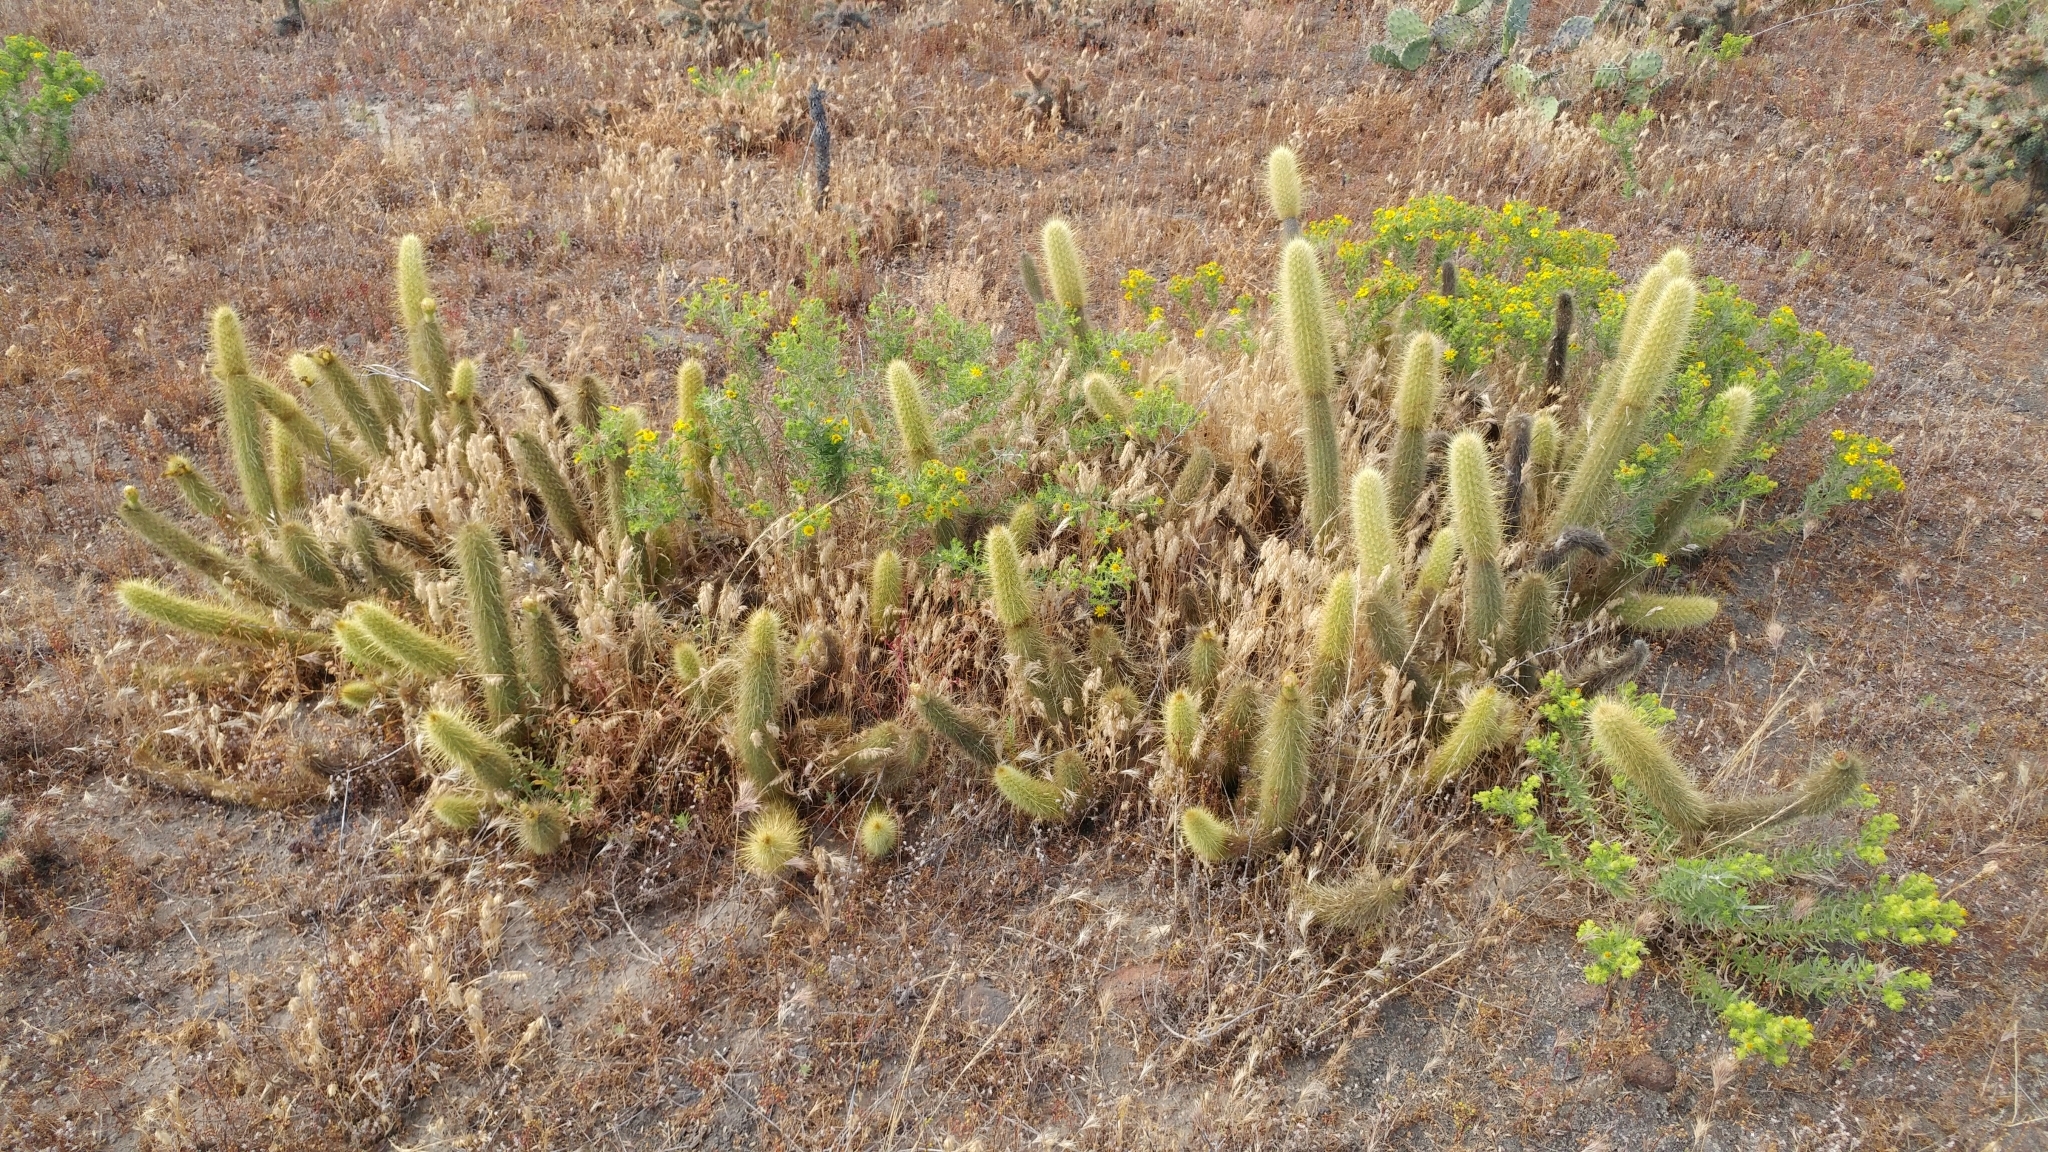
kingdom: Plantae
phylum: Tracheophyta
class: Magnoliopsida
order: Caryophyllales
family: Cactaceae
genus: Bergerocactus
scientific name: Bergerocactus emoryi
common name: Golden snakecactus
